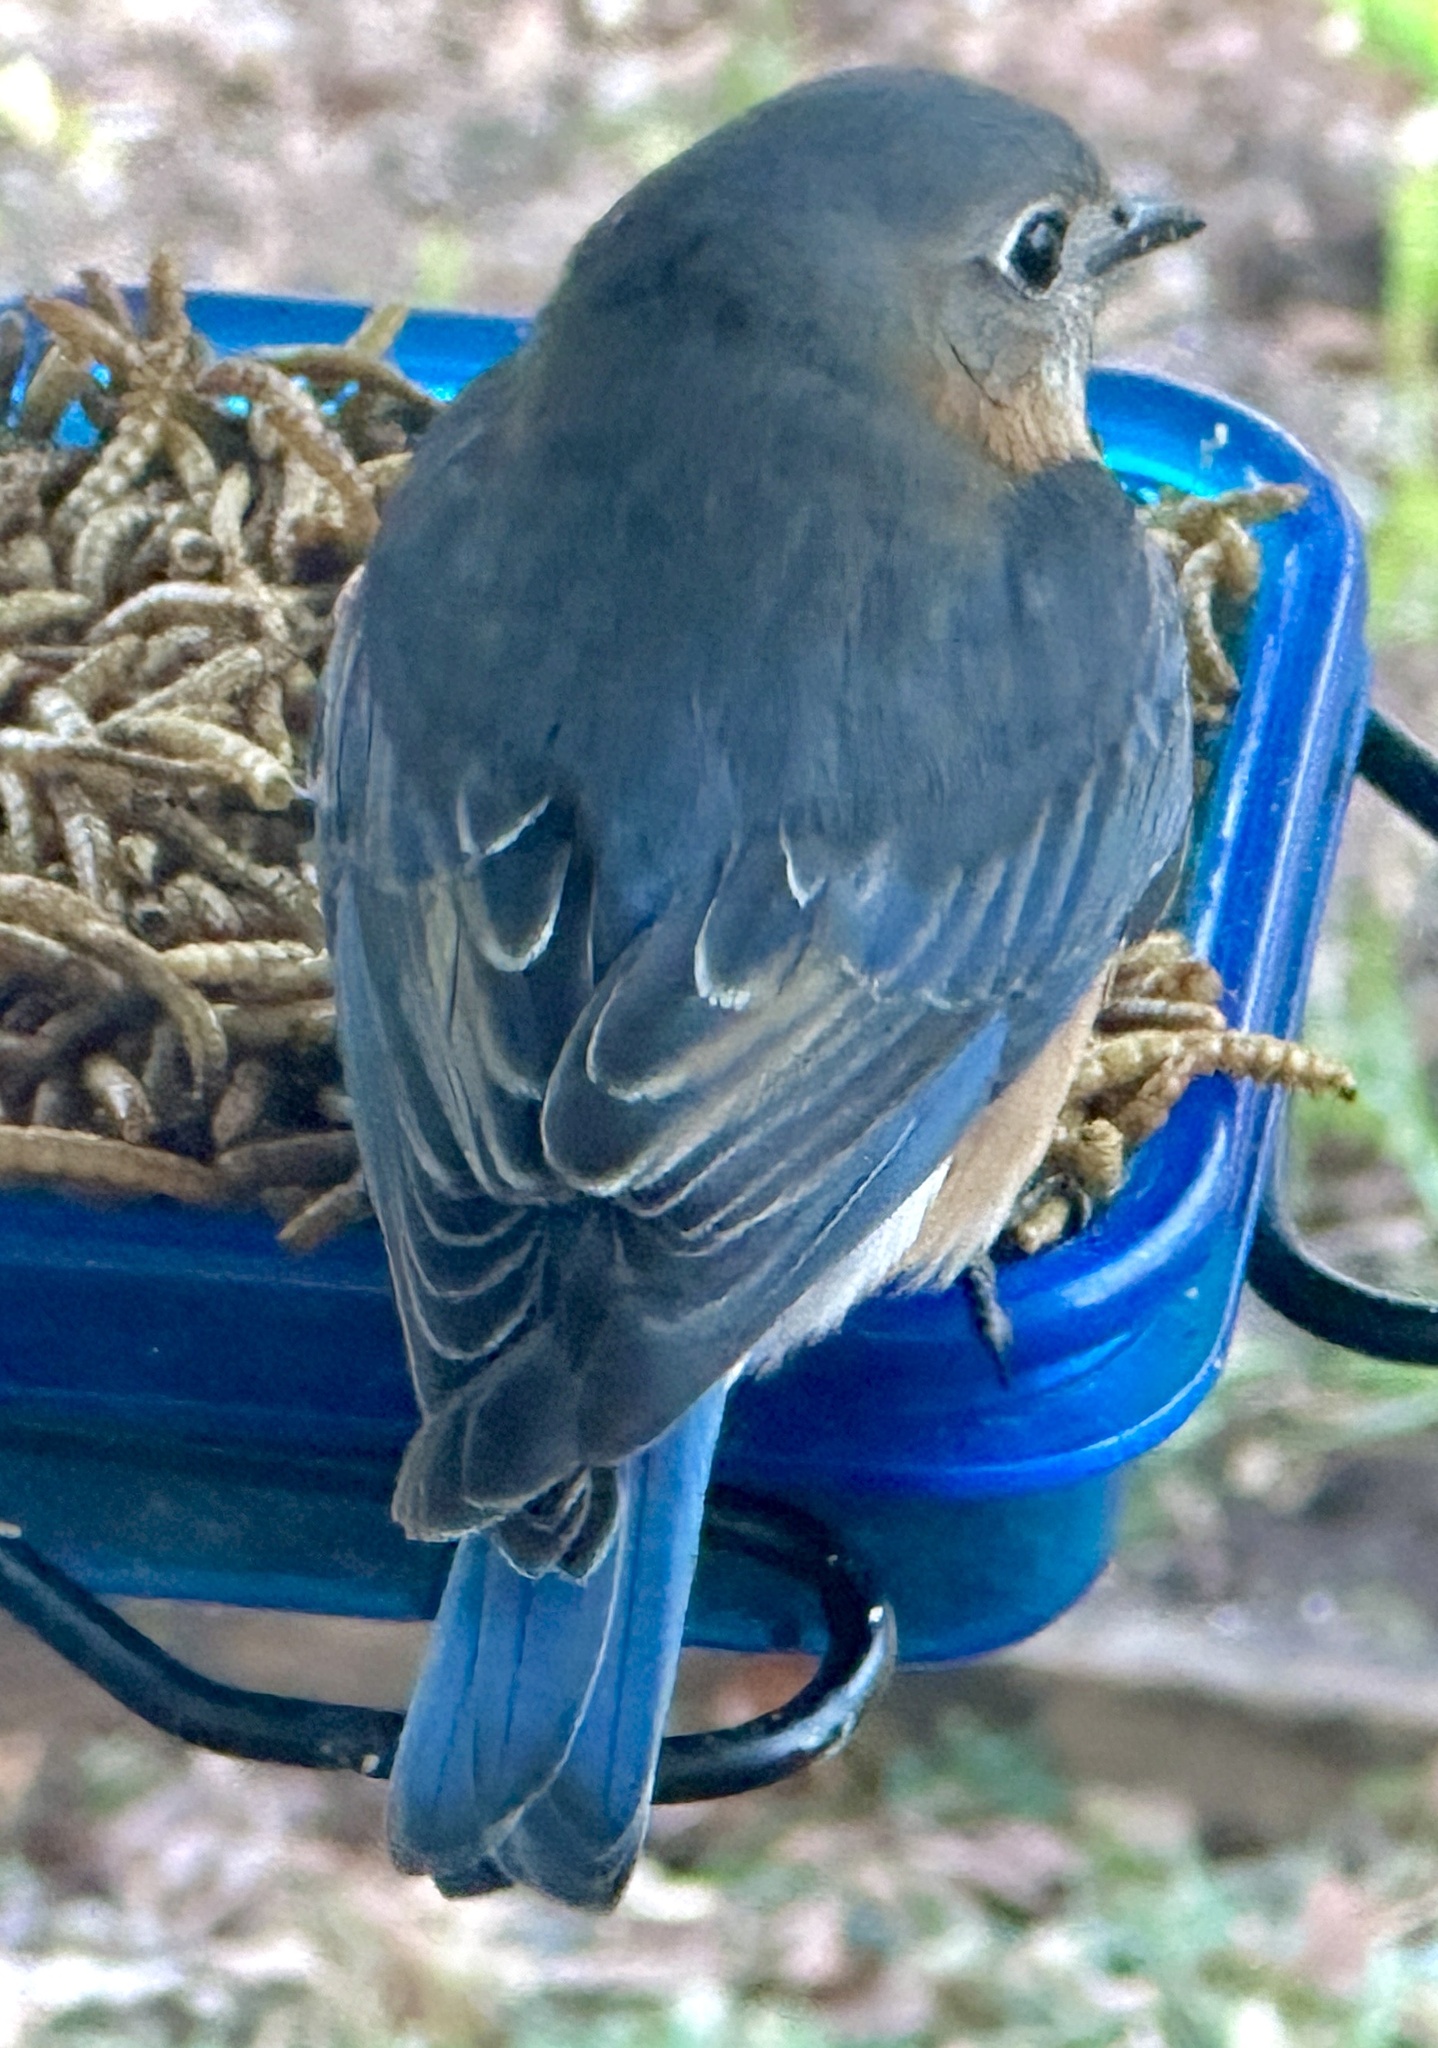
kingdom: Animalia
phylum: Chordata
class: Aves
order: Passeriformes
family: Turdidae
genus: Sialia
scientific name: Sialia sialis
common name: Eastern bluebird
